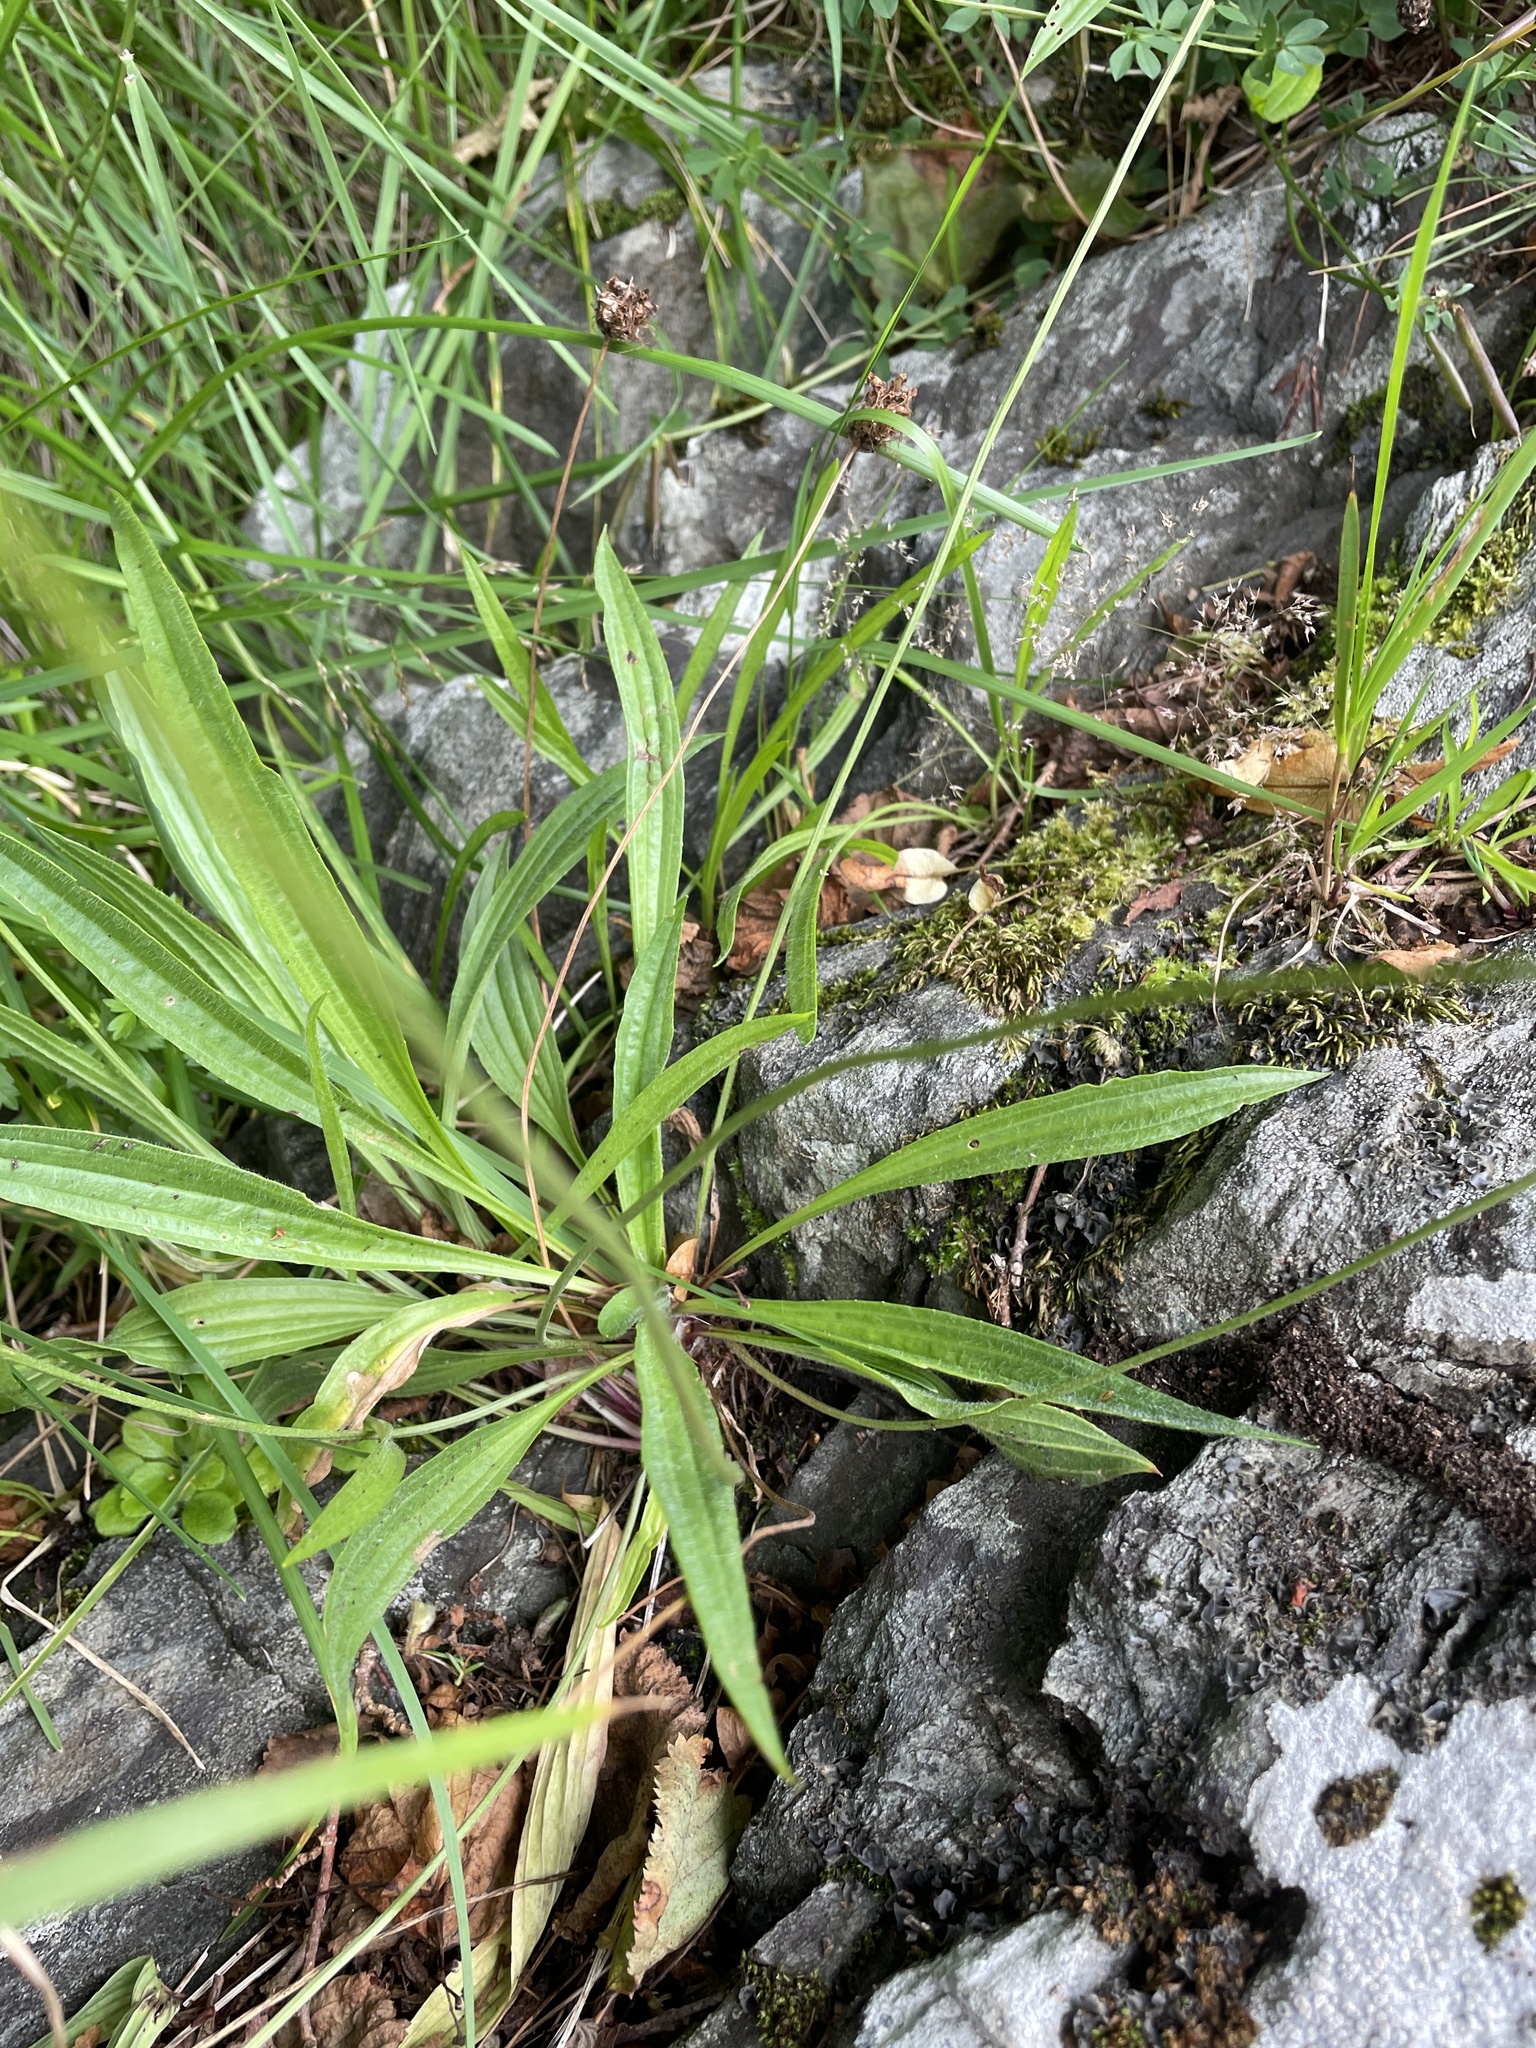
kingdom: Plantae
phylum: Tracheophyta
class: Magnoliopsida
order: Lamiales
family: Plantaginaceae
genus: Plantago
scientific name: Plantago lanceolata
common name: Ribwort plantain
